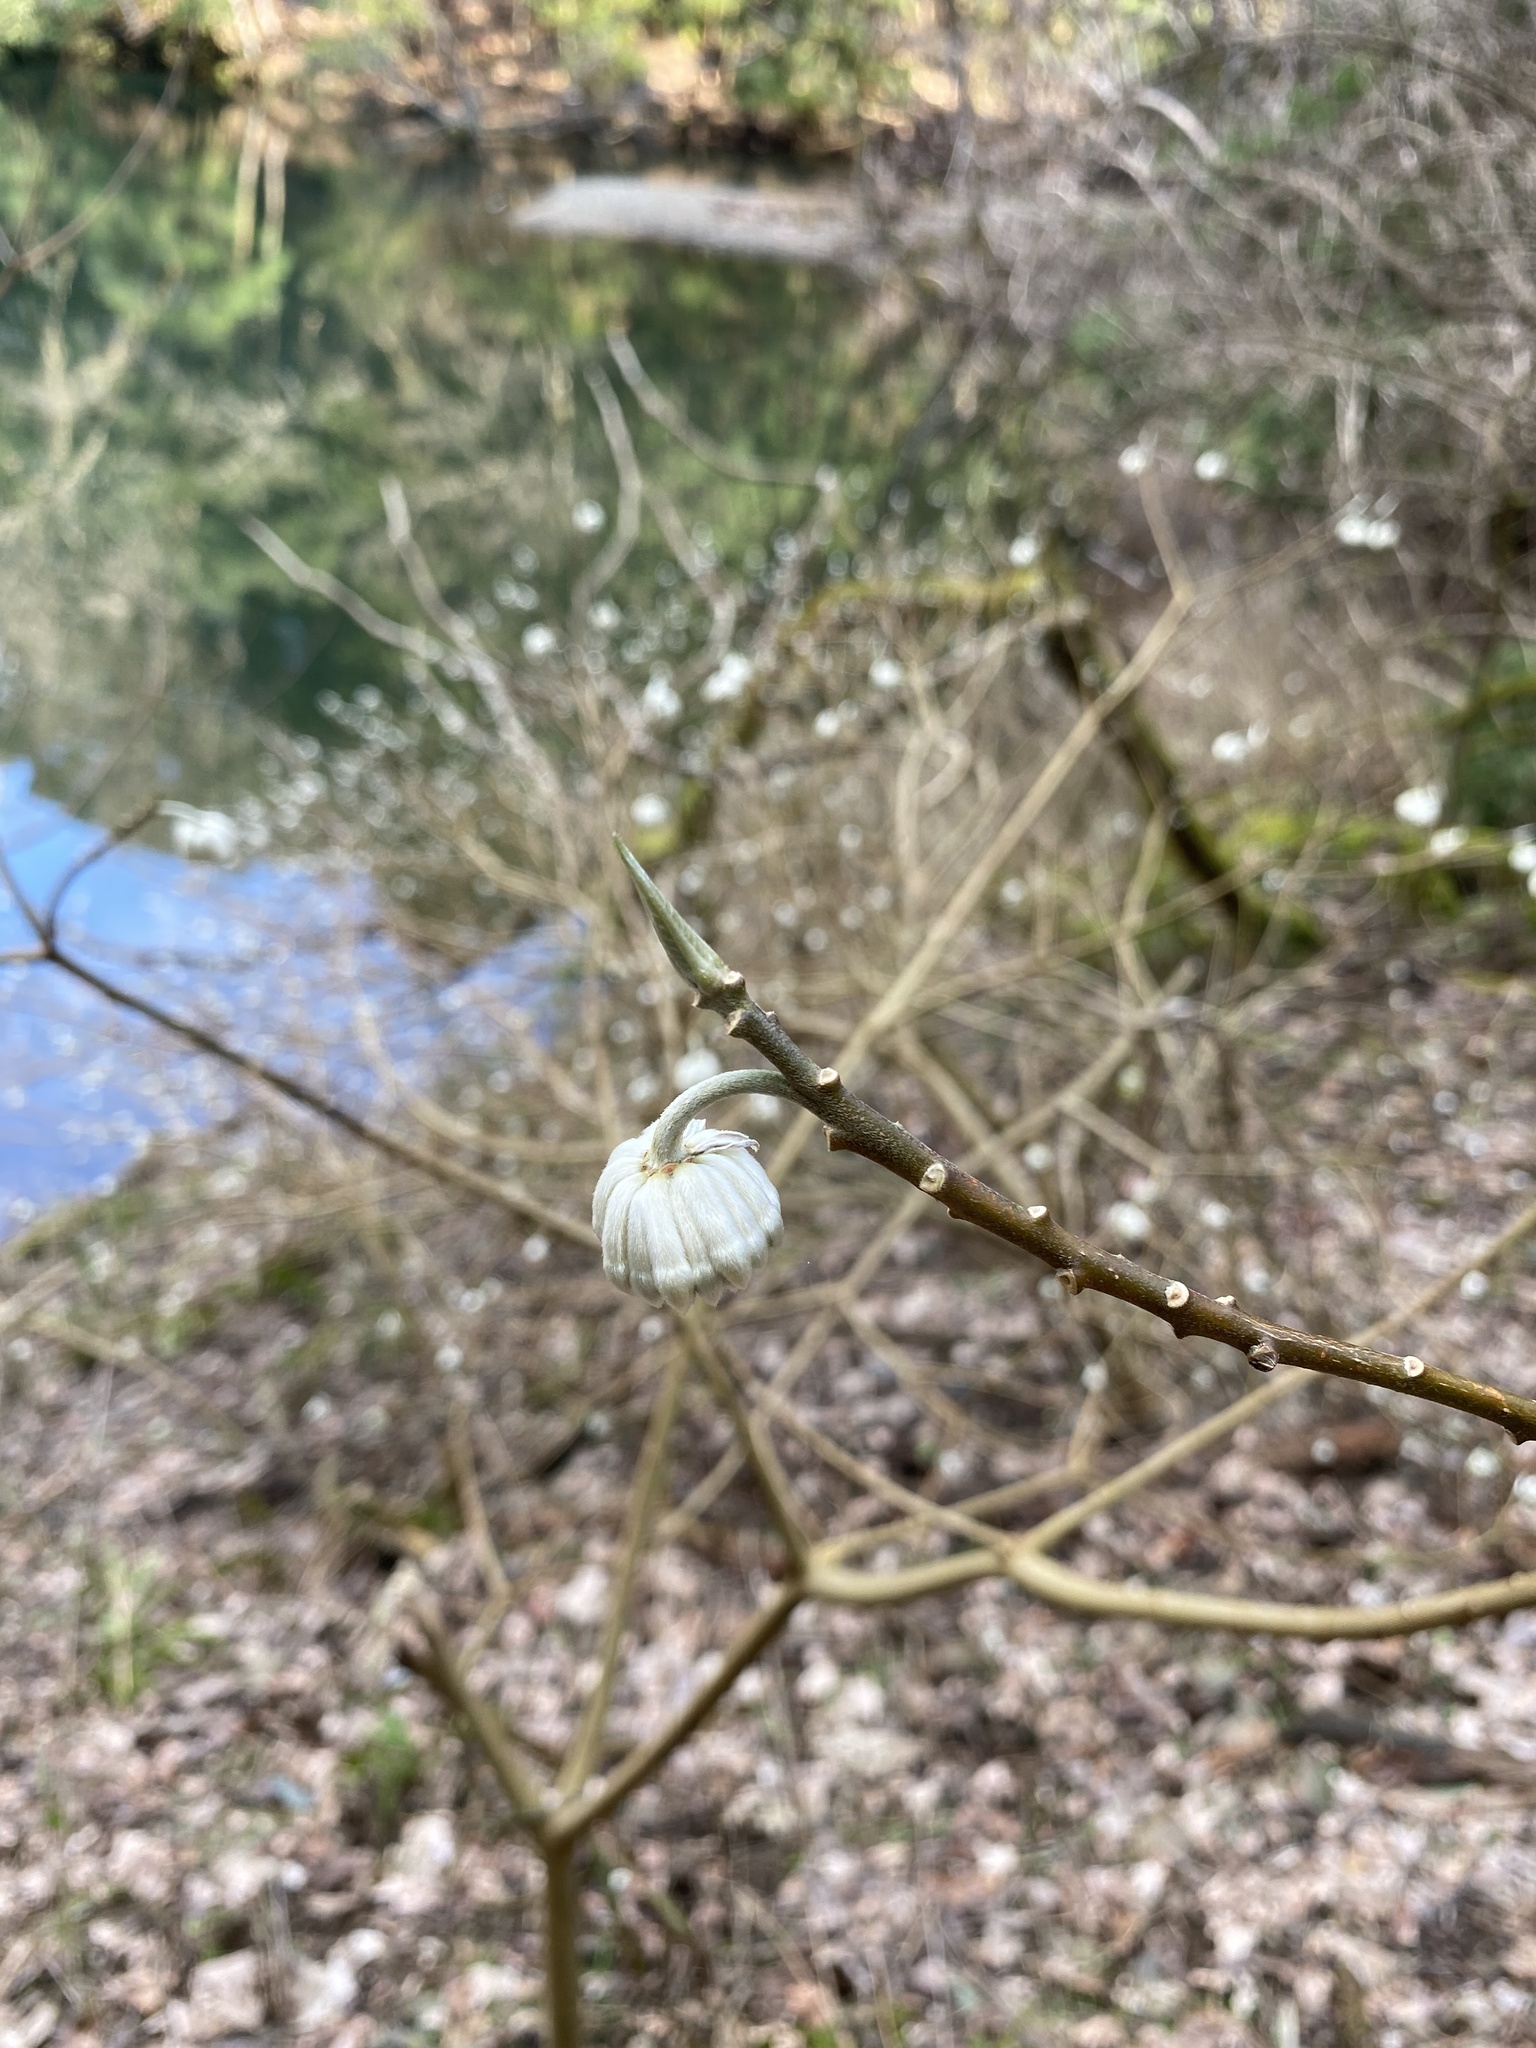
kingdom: Plantae
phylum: Tracheophyta
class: Magnoliopsida
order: Malvales
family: Thymelaeaceae
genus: Edgeworthia
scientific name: Edgeworthia chrysantha
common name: Oriental paperbush
